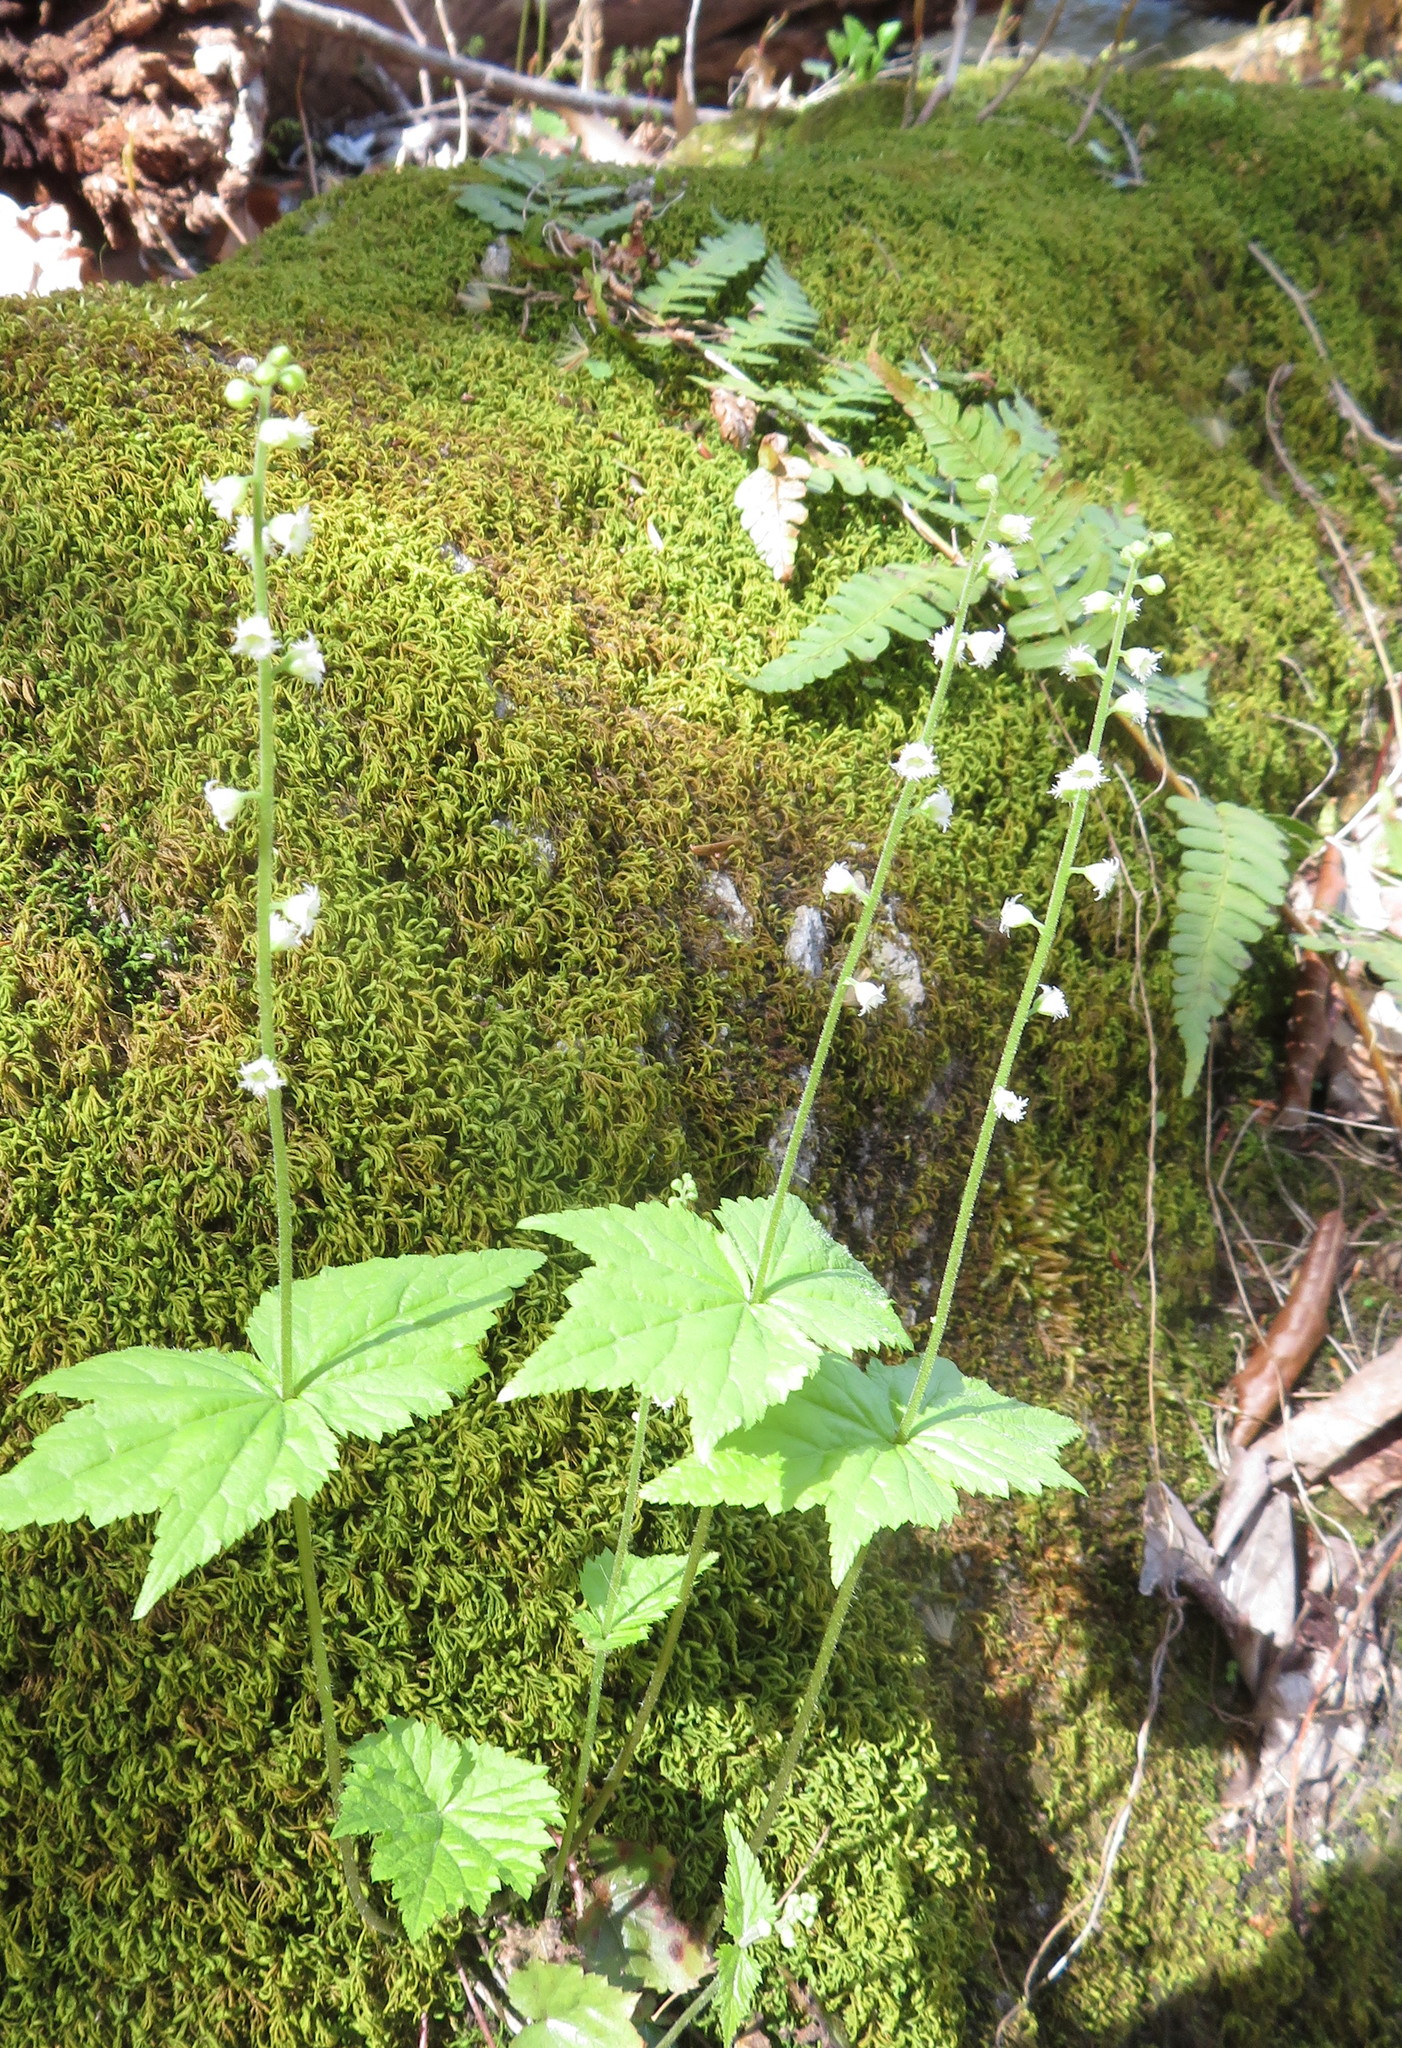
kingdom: Plantae
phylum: Tracheophyta
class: Magnoliopsida
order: Saxifragales
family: Saxifragaceae
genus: Mitella
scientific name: Mitella diphylla
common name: Coolwort
